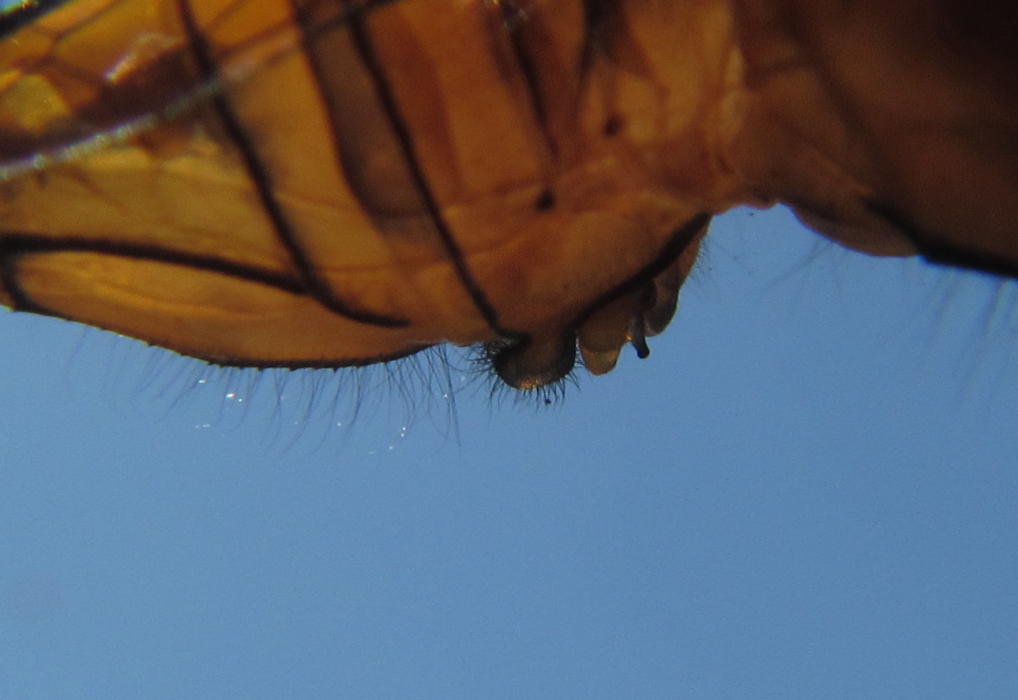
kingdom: Animalia
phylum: Arthropoda
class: Insecta
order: Odonata
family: Libellulidae
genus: Orthetrum
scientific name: Orthetrum julia
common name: Julia skimmer
